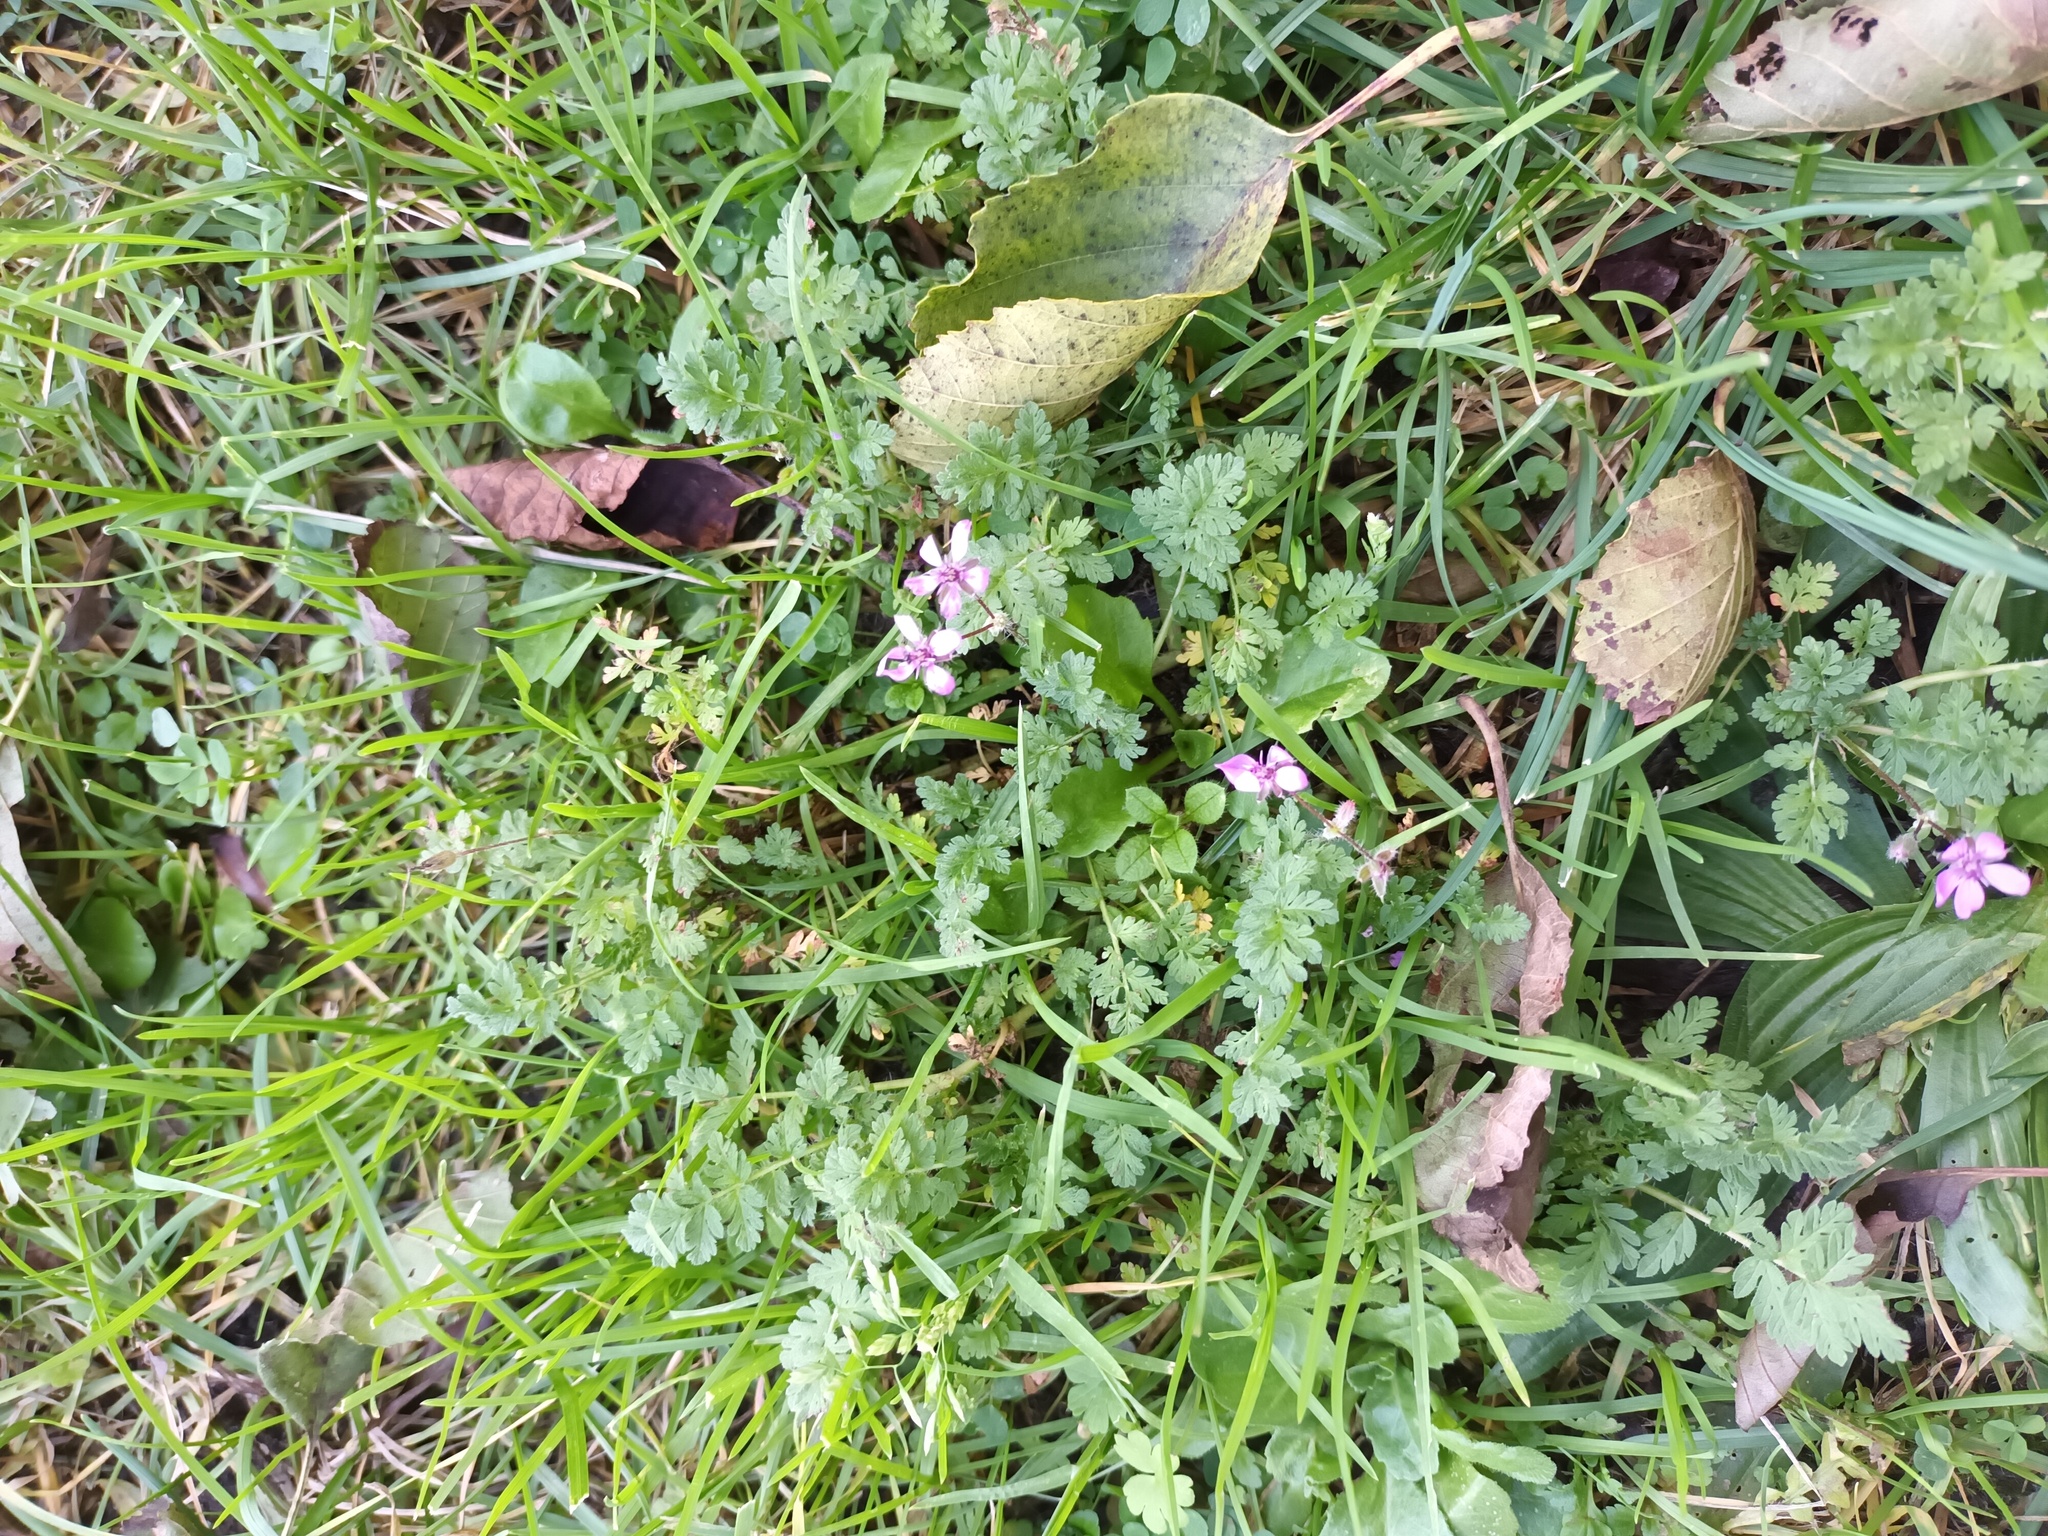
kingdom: Plantae
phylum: Tracheophyta
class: Magnoliopsida
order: Geraniales
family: Geraniaceae
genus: Erodium
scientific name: Erodium cicutarium
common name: Common stork's-bill
